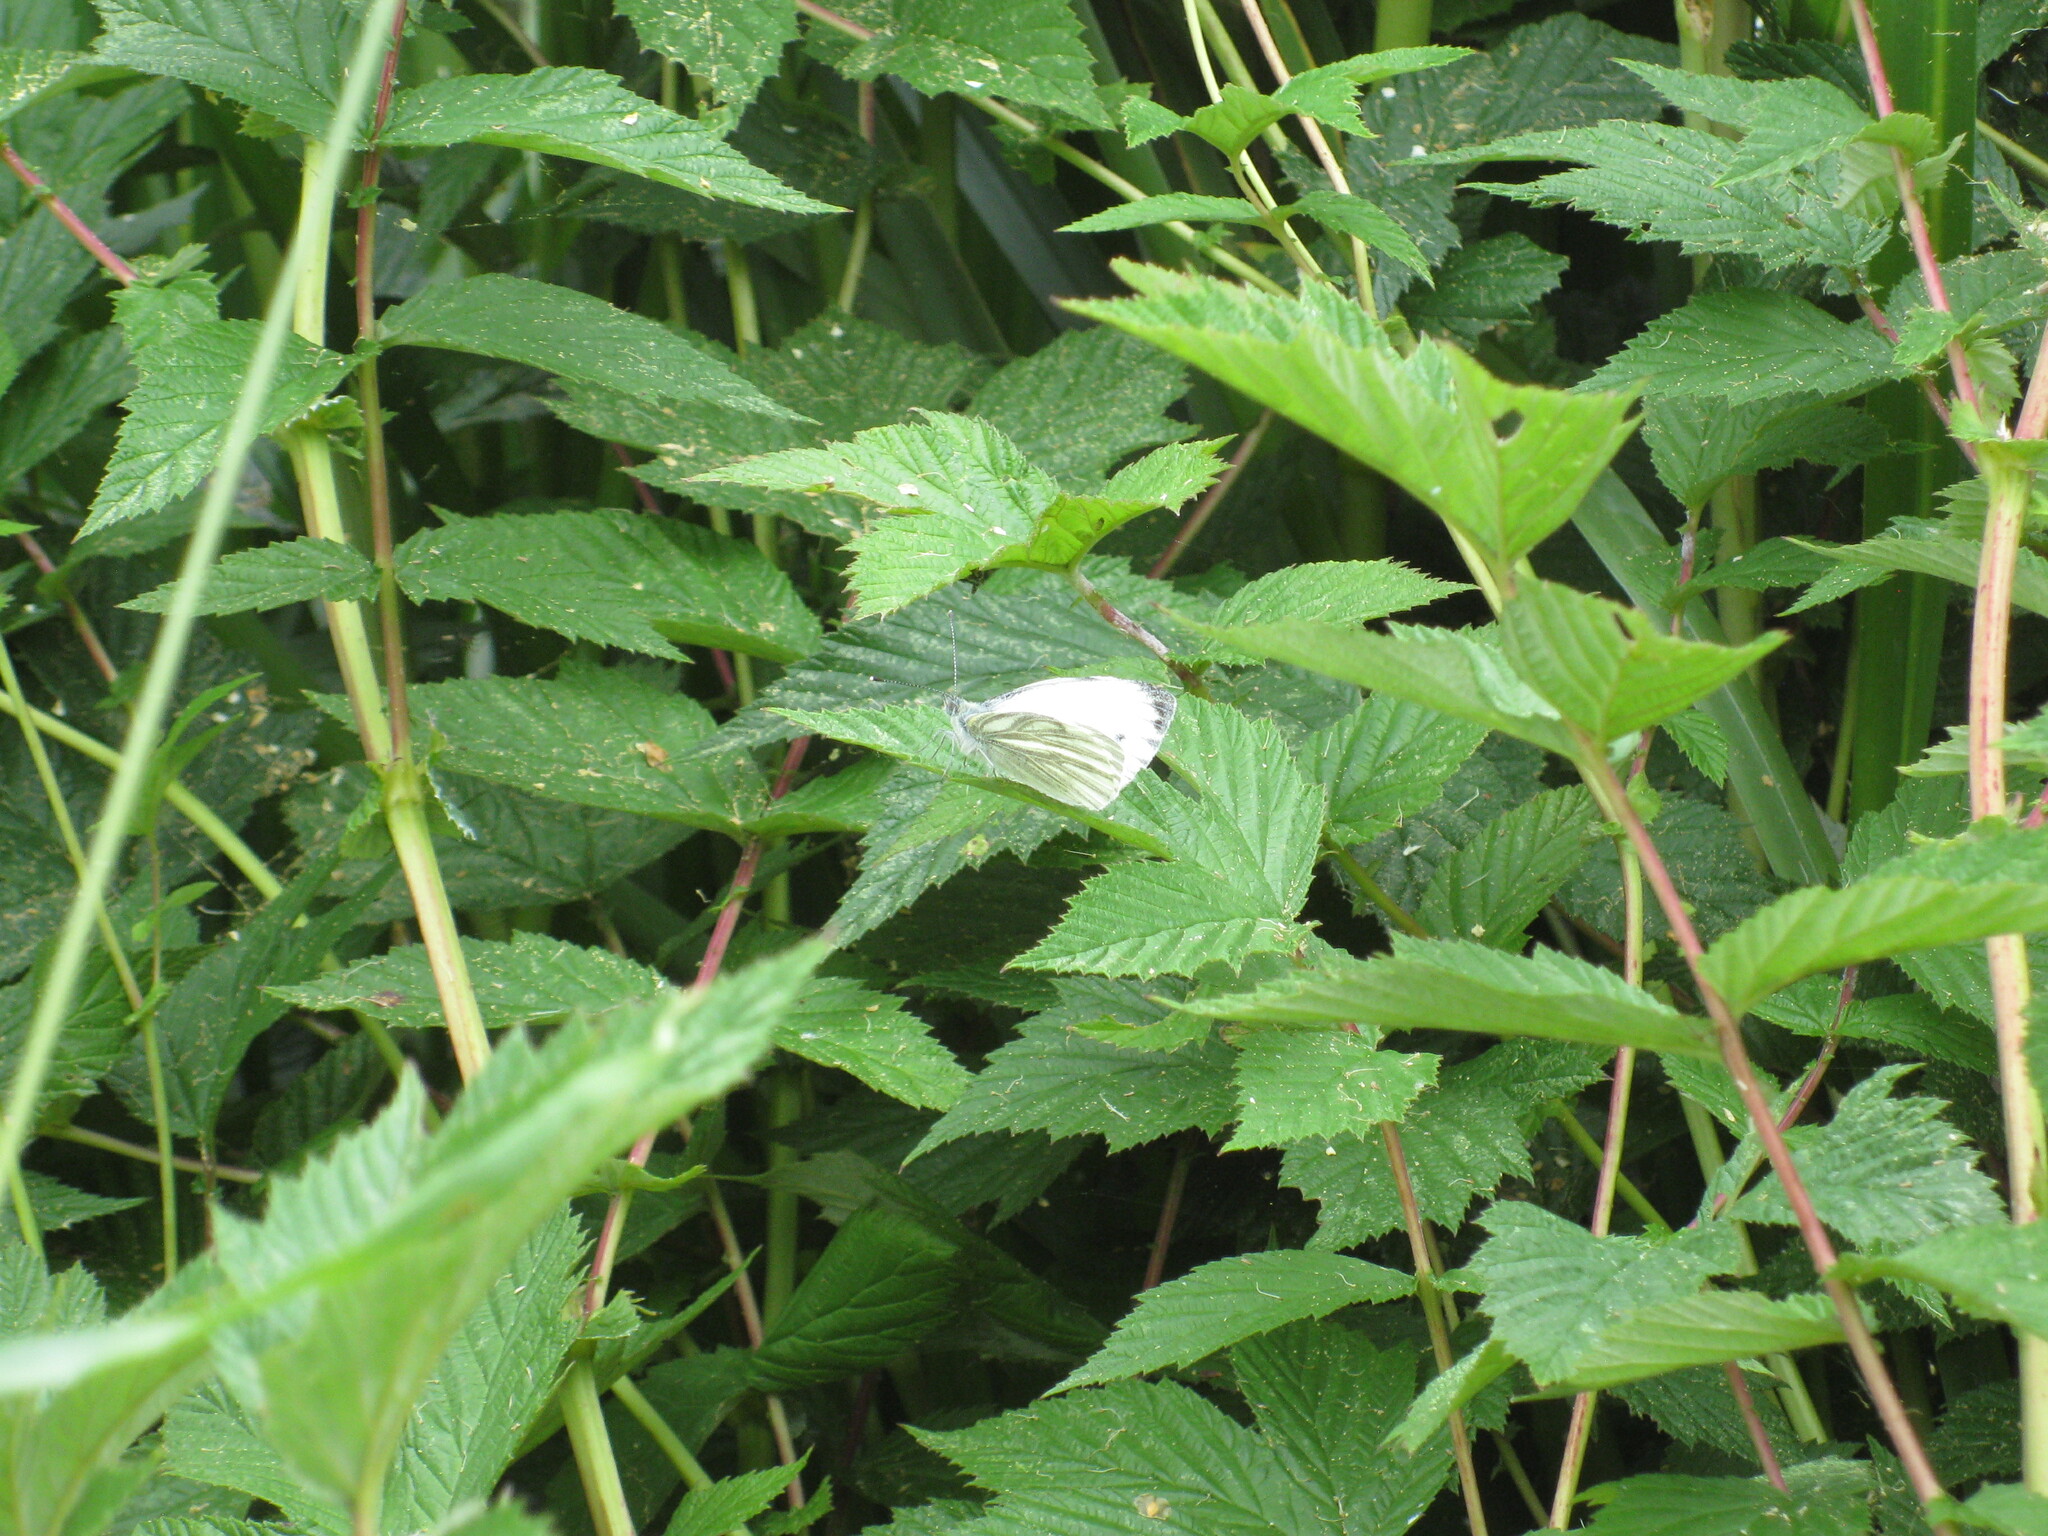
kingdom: Animalia
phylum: Arthropoda
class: Insecta
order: Lepidoptera
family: Pieridae
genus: Pieris
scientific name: Pieris napi
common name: Green-veined white
